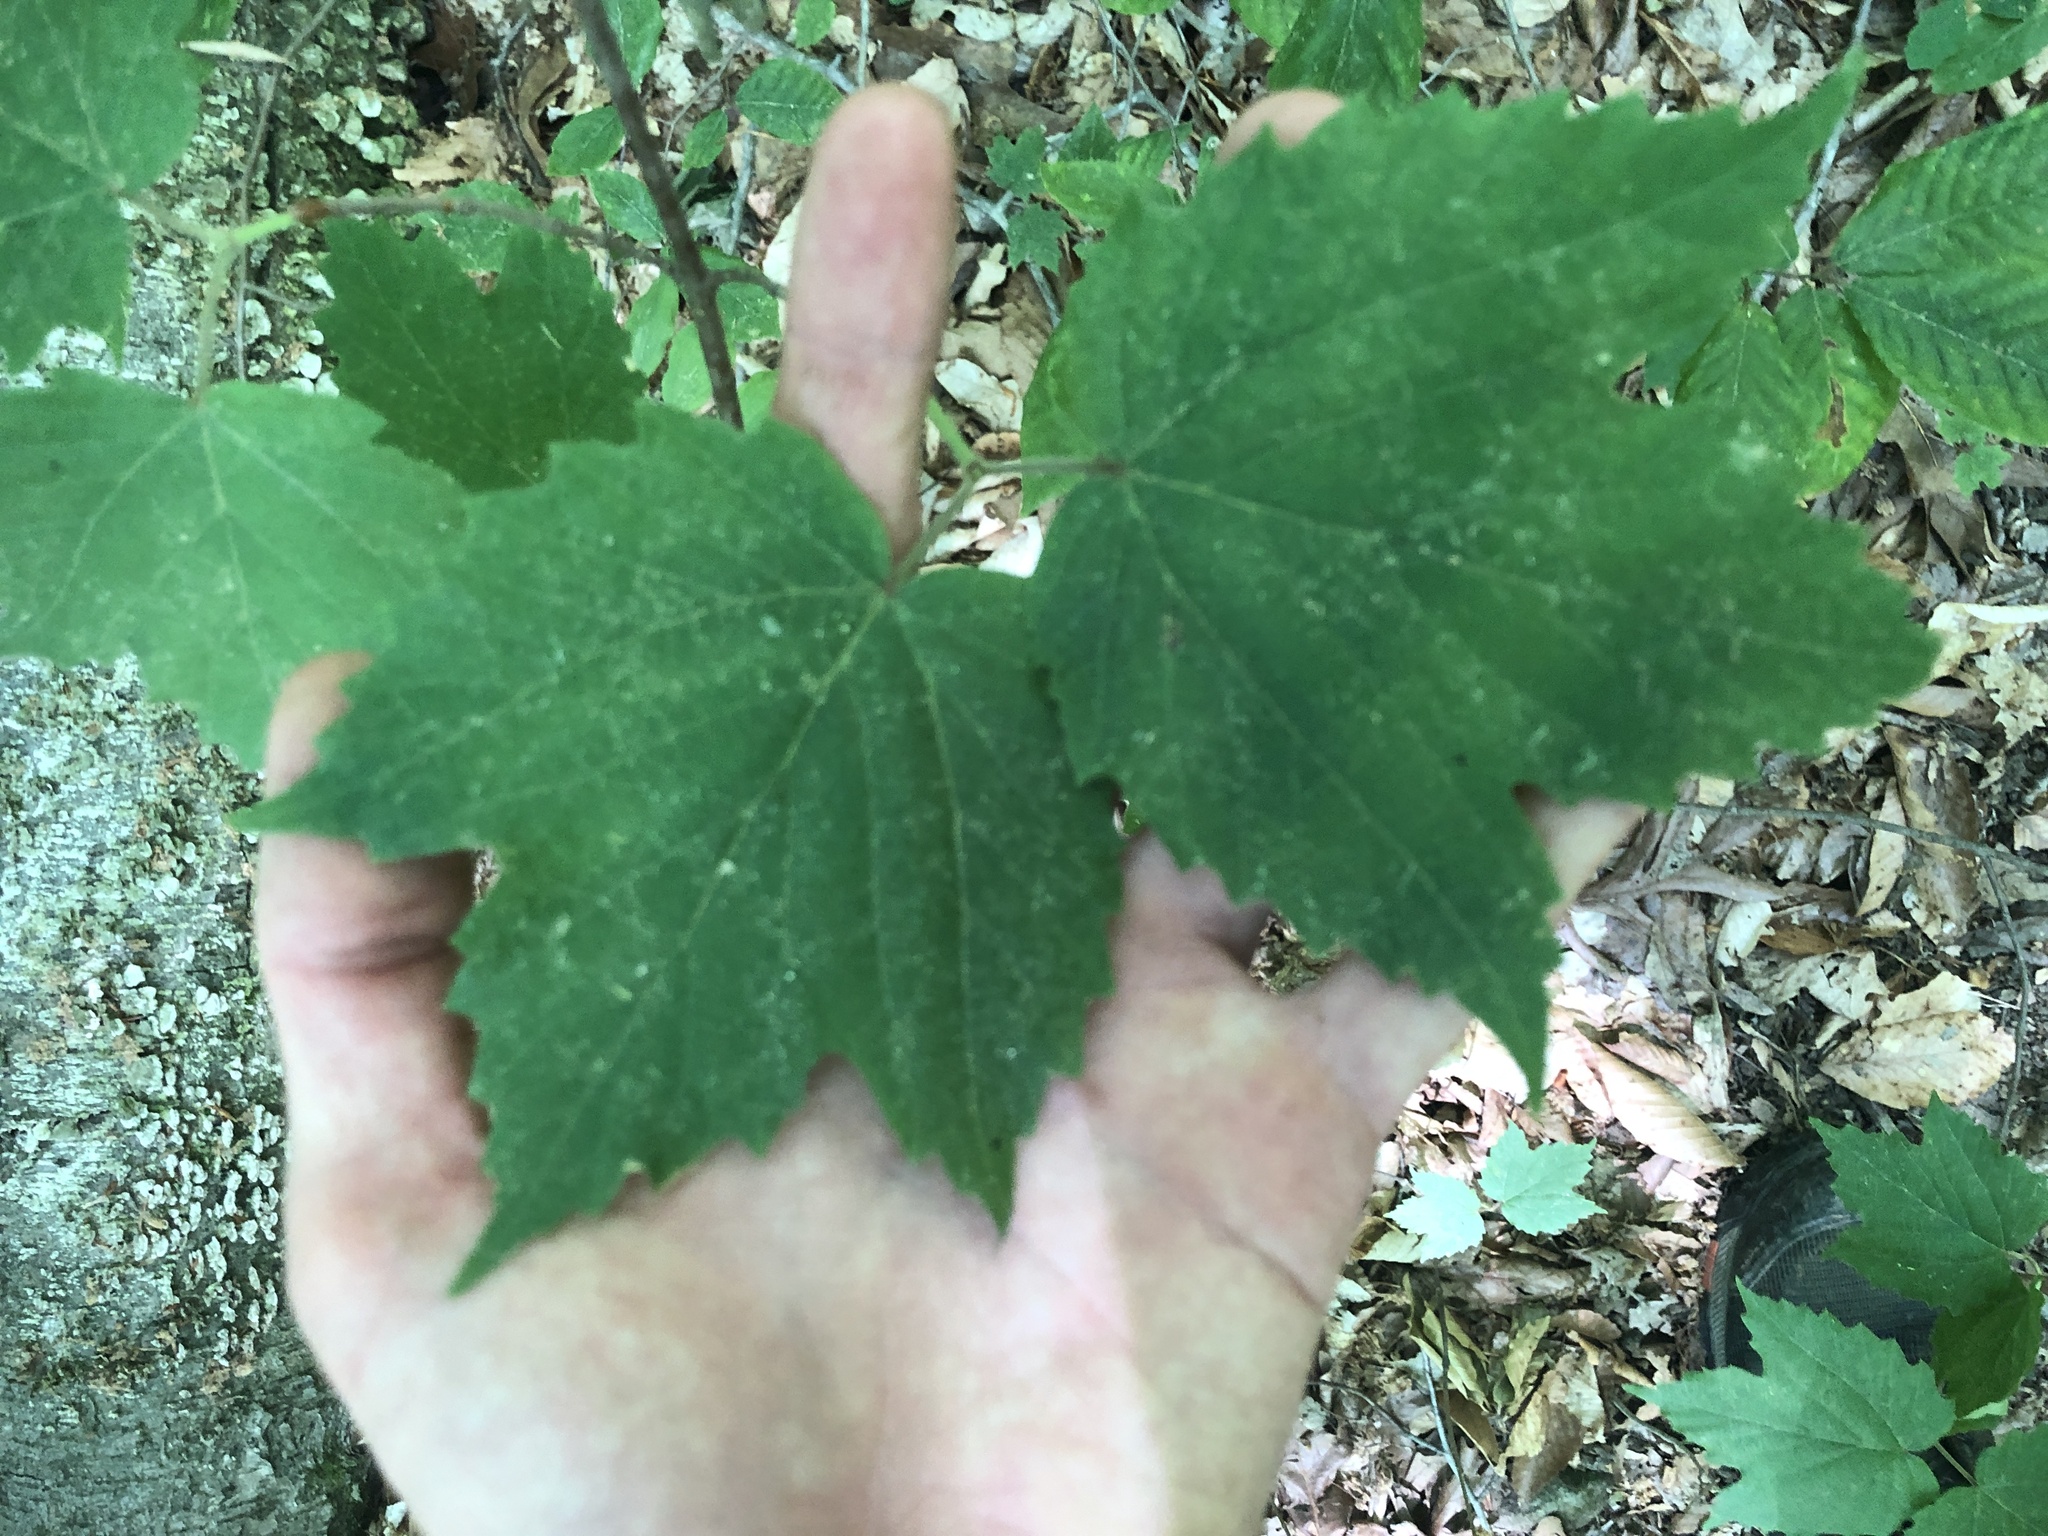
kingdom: Plantae
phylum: Tracheophyta
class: Magnoliopsida
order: Dipsacales
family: Viburnaceae
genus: Viburnum
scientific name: Viburnum acerifolium
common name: Dockmackie
